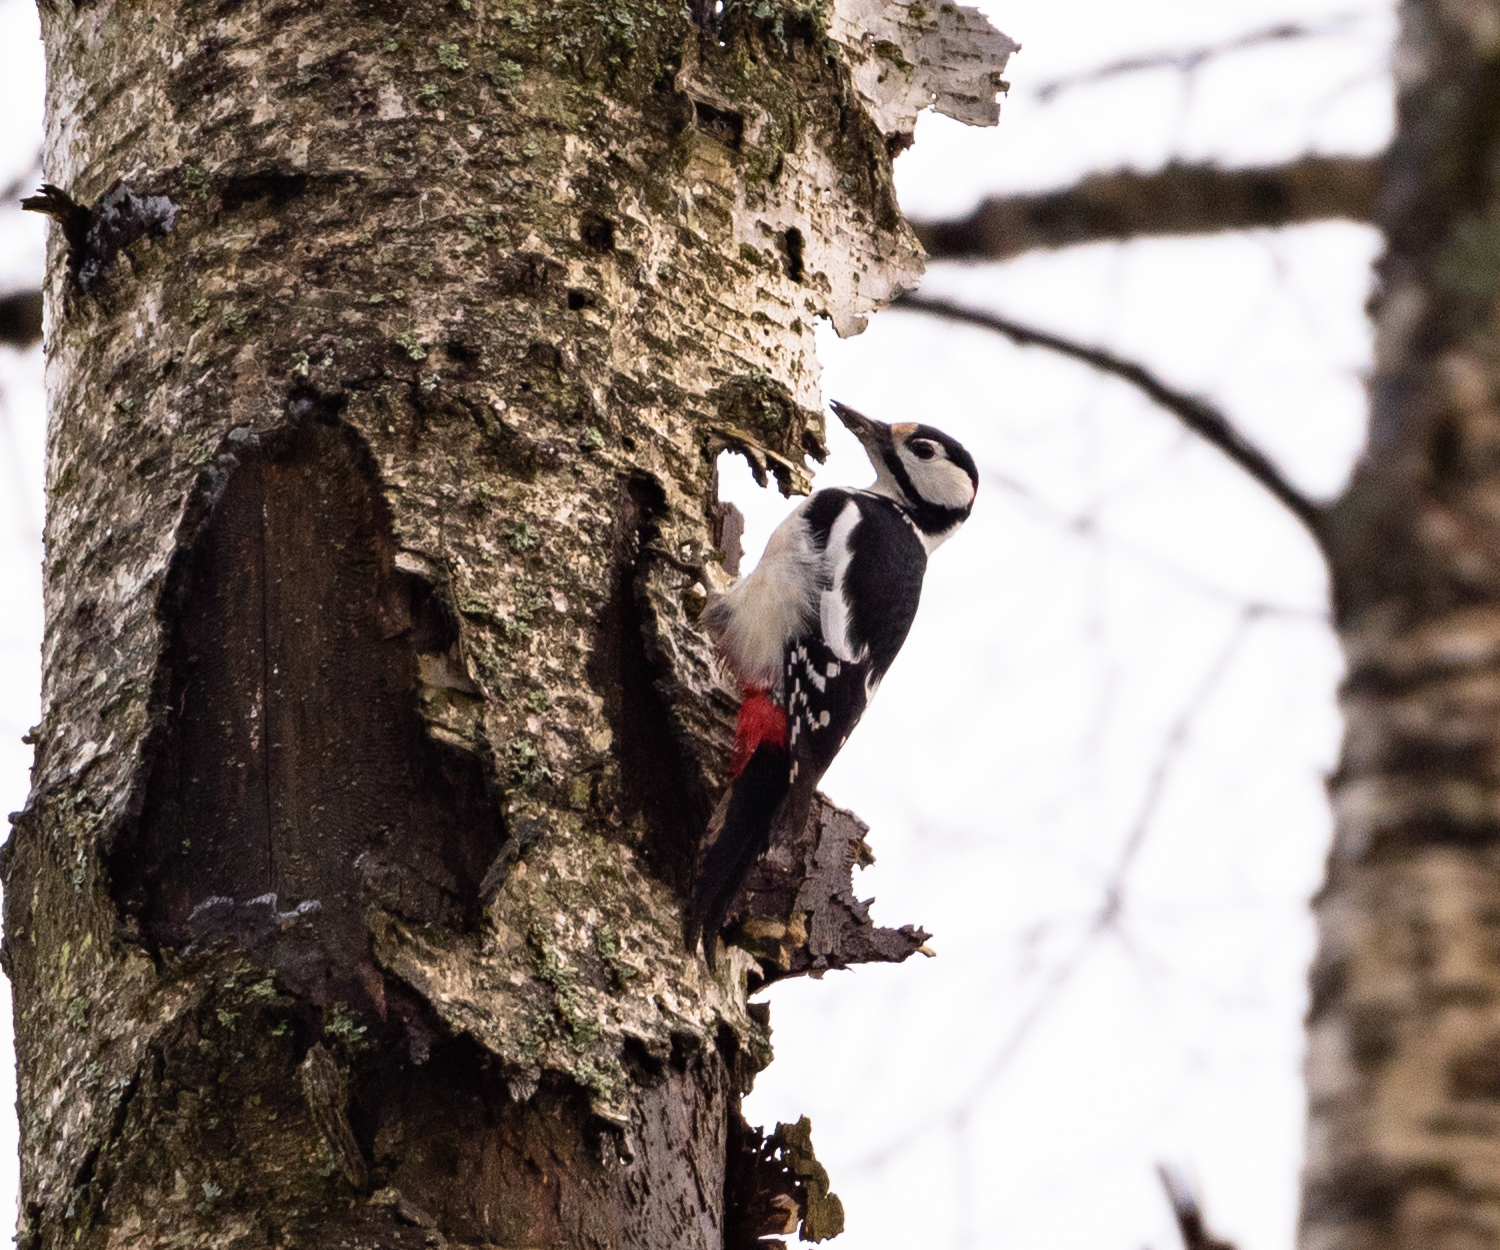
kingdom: Animalia
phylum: Chordata
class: Aves
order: Piciformes
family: Picidae
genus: Dendrocopos
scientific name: Dendrocopos major
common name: Great spotted woodpecker
